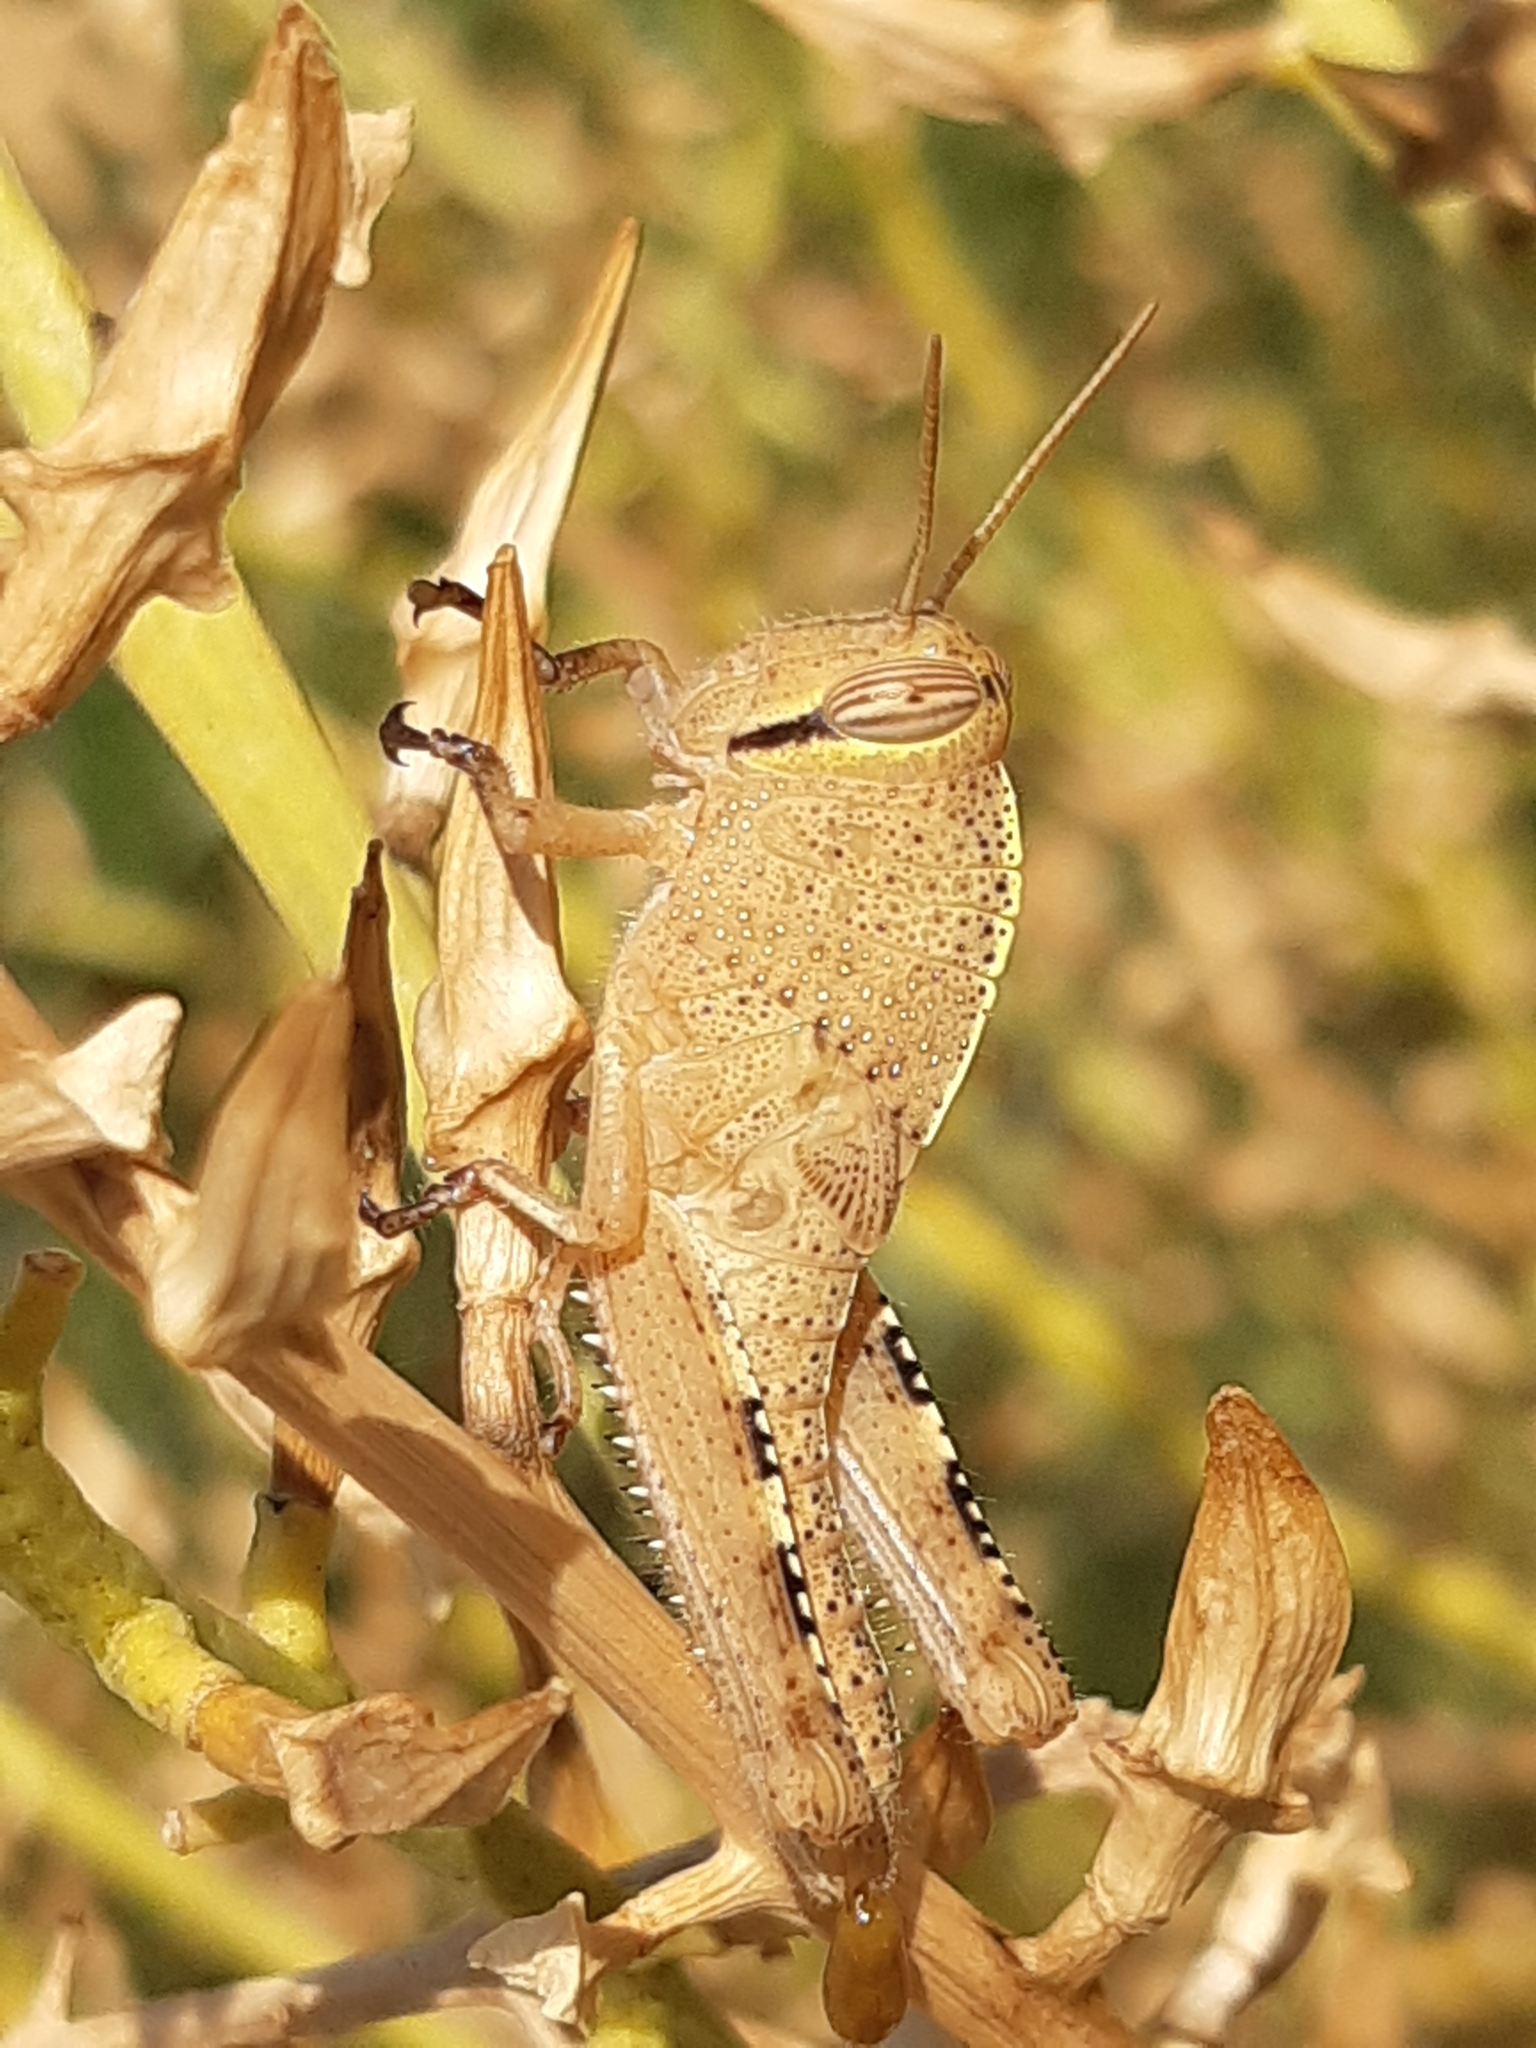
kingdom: Animalia
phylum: Arthropoda
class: Insecta
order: Orthoptera
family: Acrididae
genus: Anacridium
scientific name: Anacridium aegyptium
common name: Egyptian grasshopper
